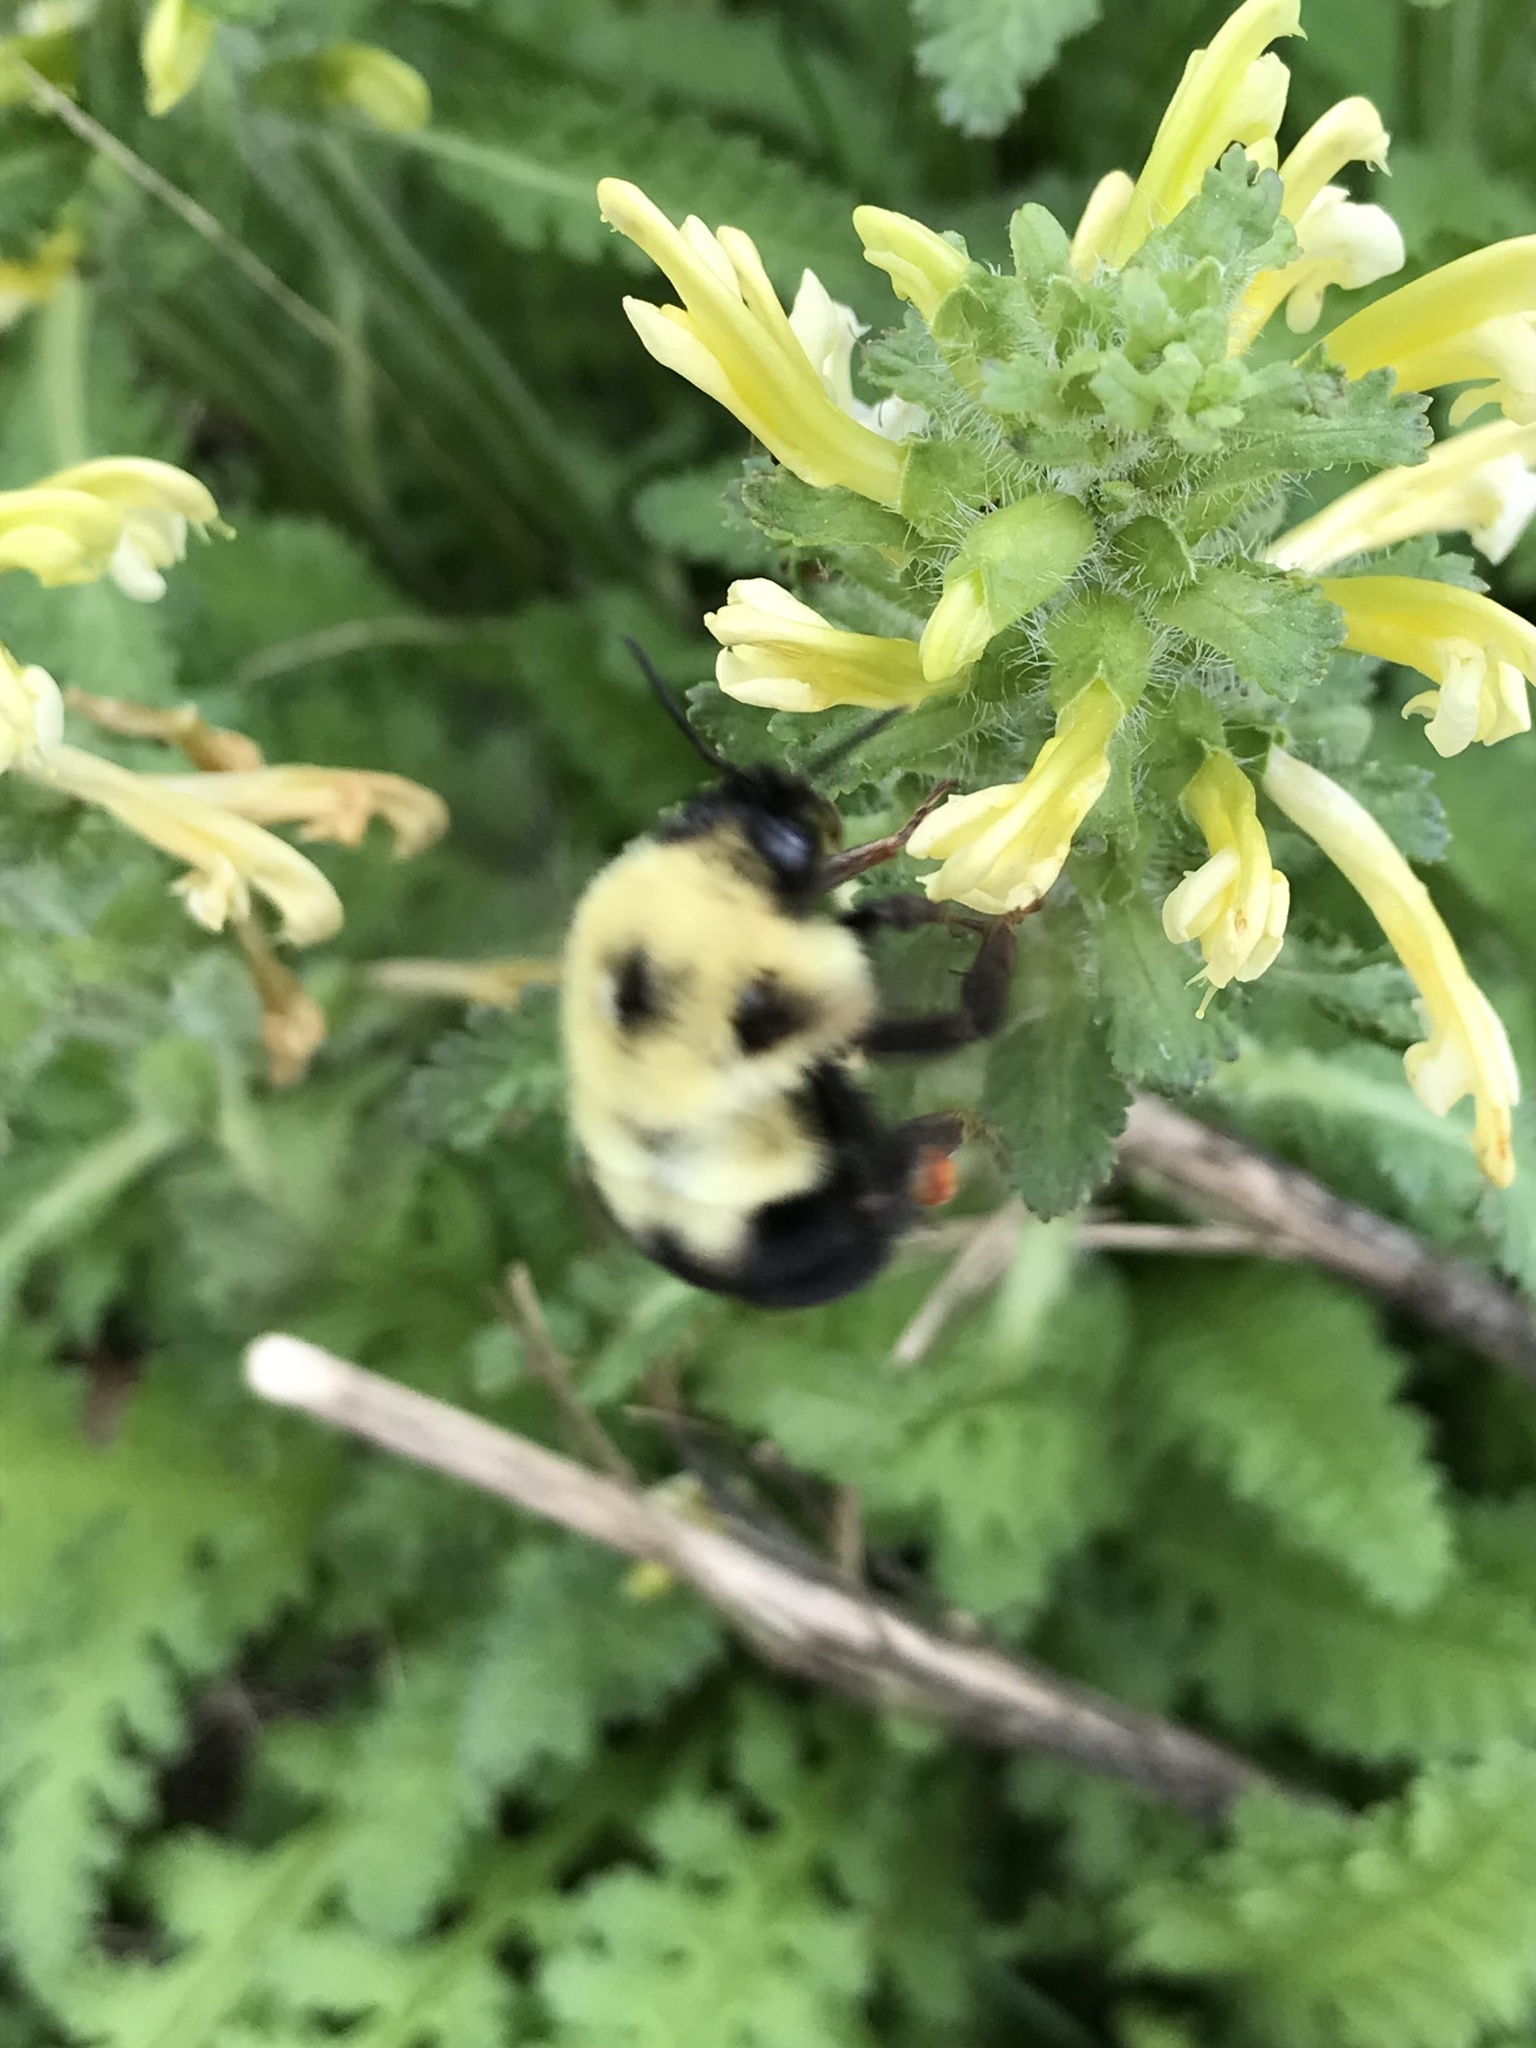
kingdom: Animalia
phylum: Arthropoda
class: Insecta
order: Hymenoptera
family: Apidae
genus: Bombus
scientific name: Bombus bimaculatus
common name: Two-spotted bumble bee
